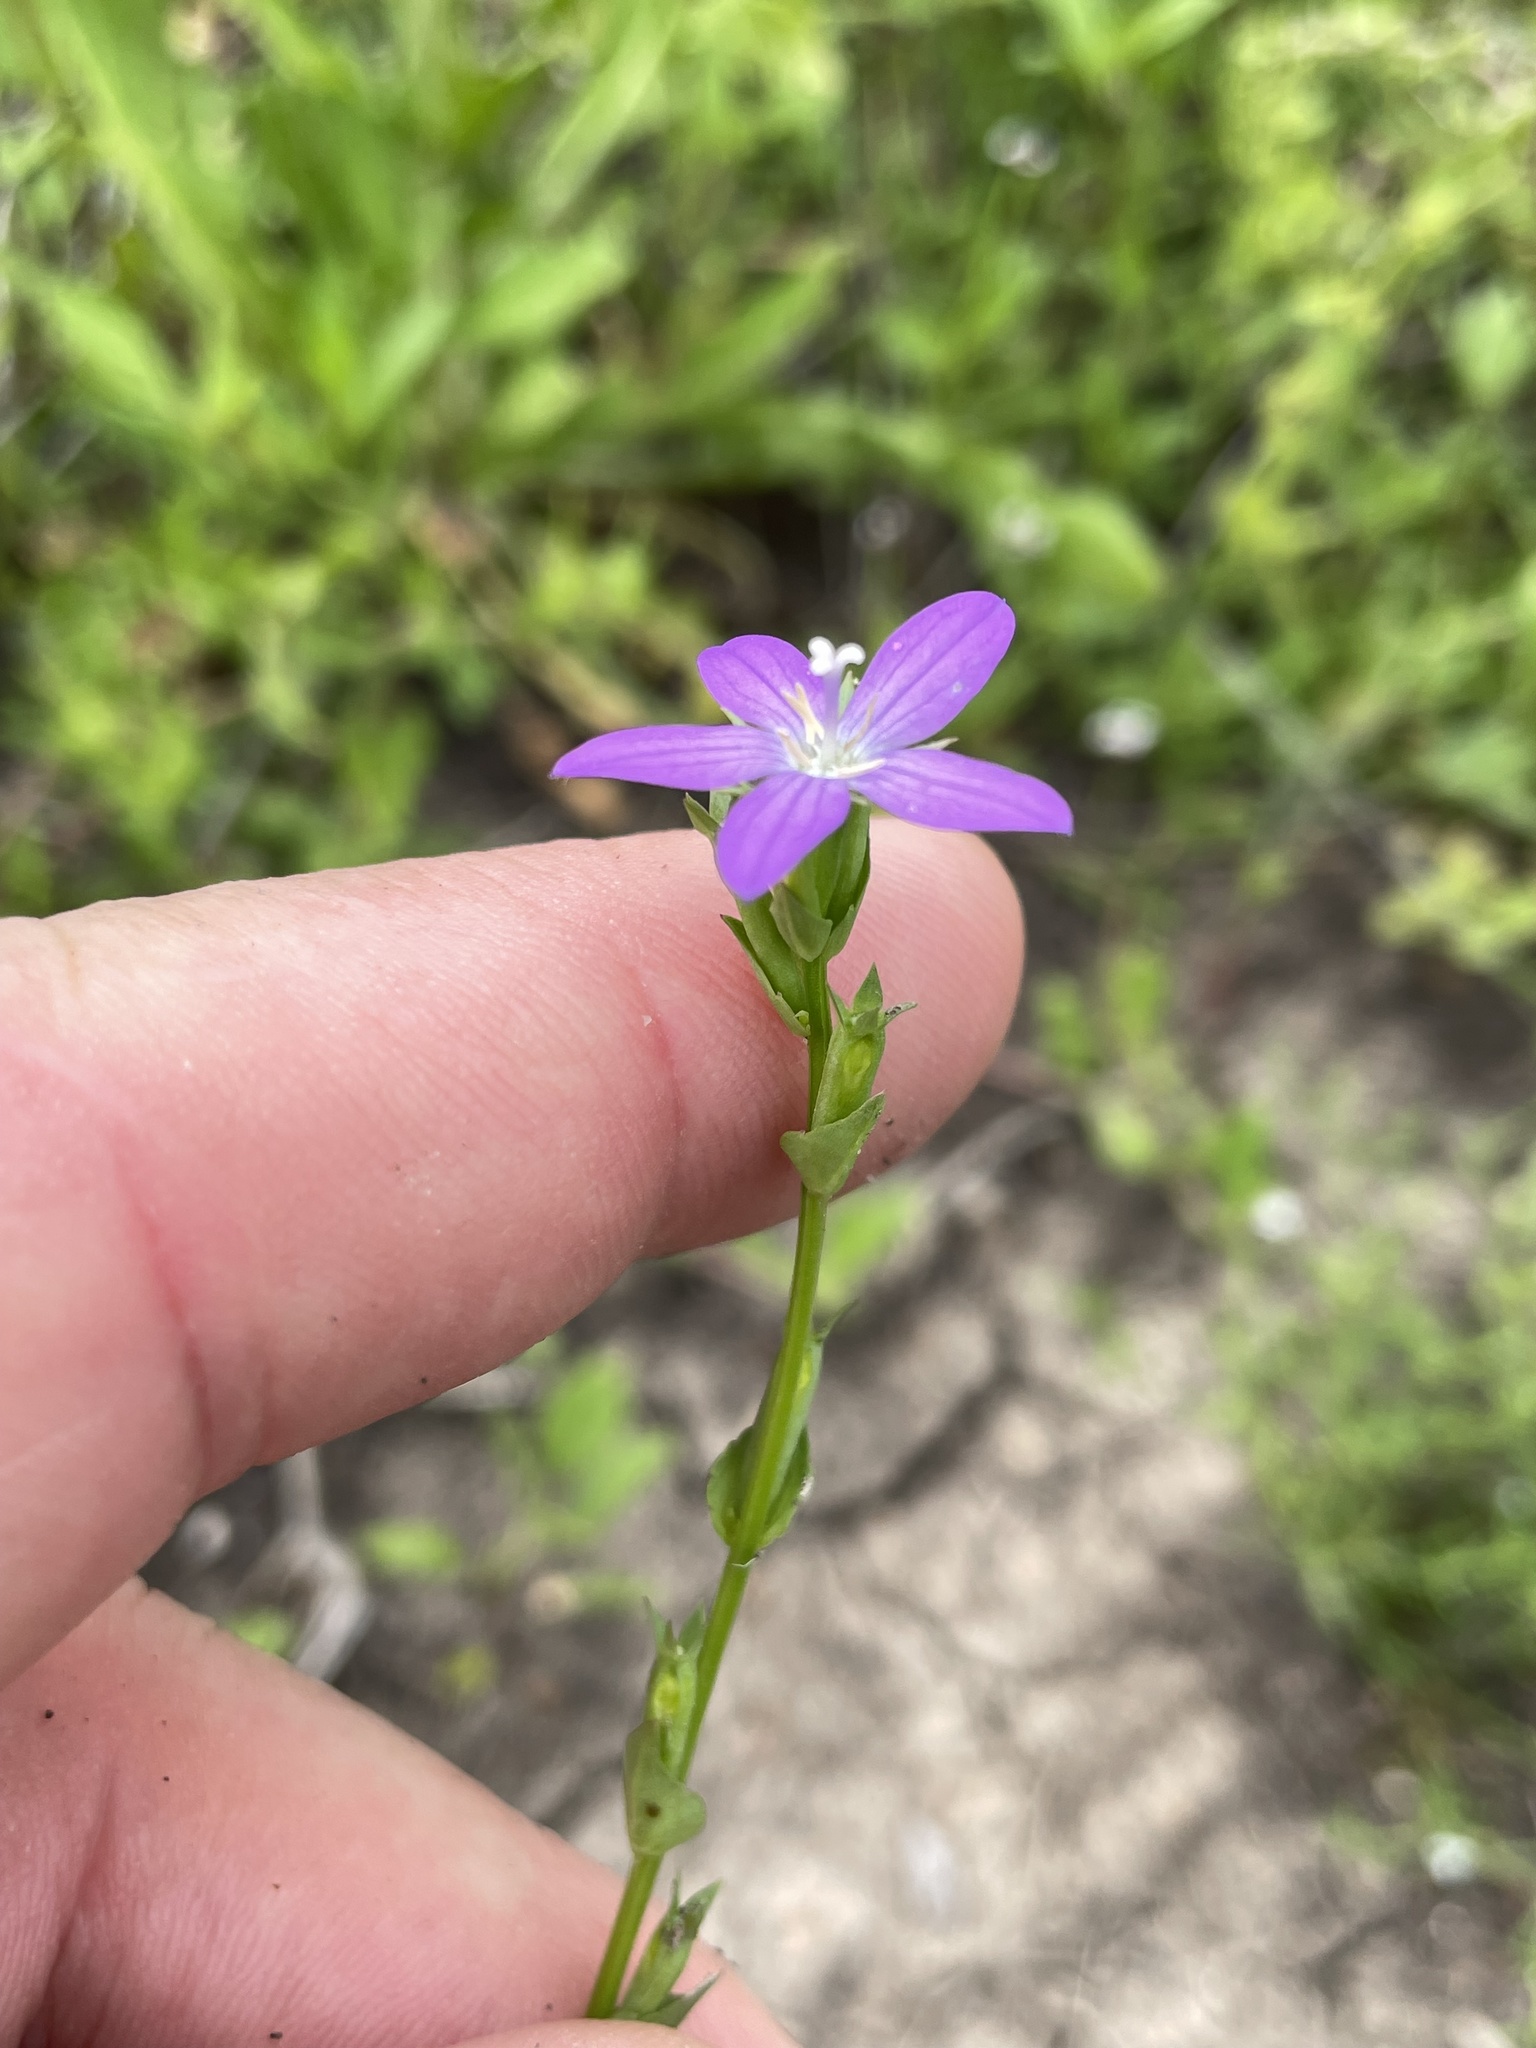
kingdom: Plantae
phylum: Tracheophyta
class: Magnoliopsida
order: Asterales
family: Campanulaceae
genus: Triodanis
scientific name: Triodanis biflora
